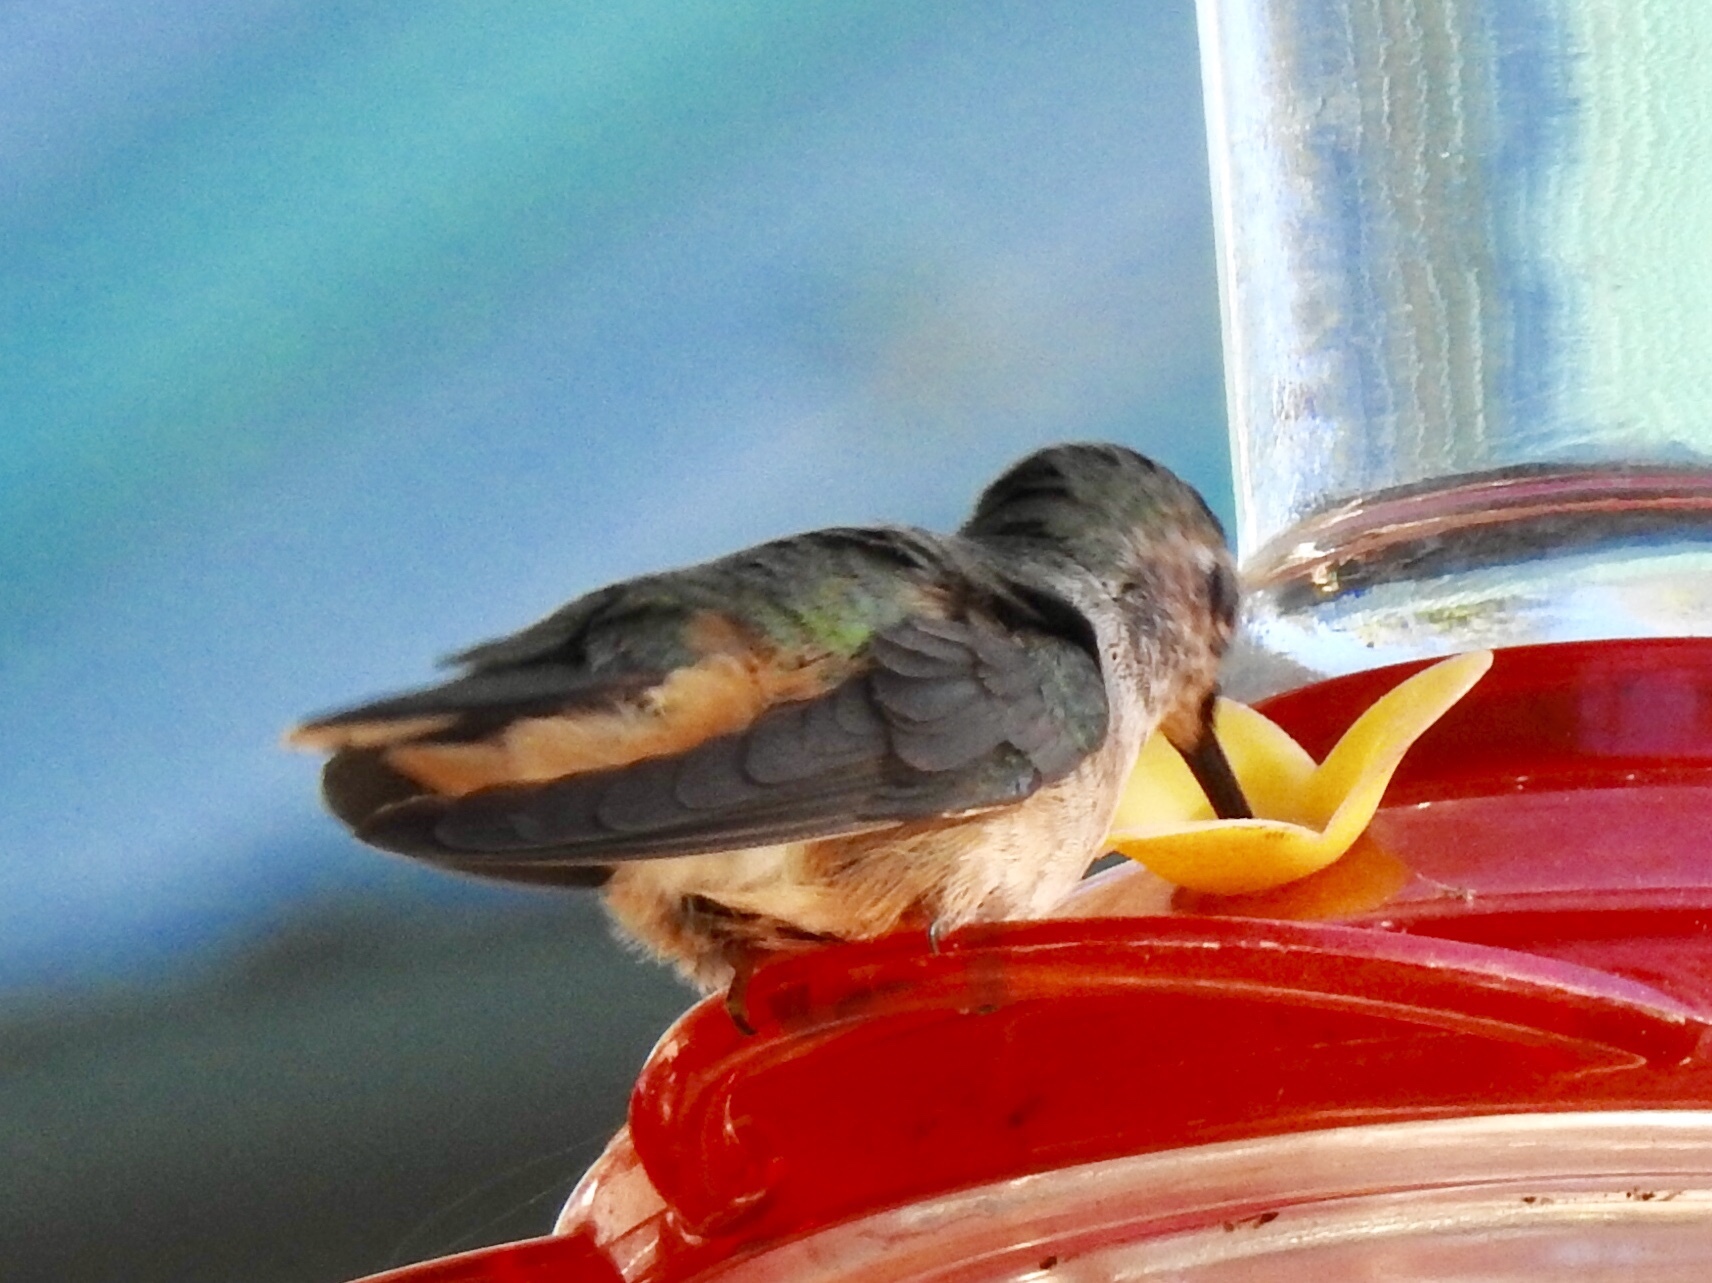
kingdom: Animalia
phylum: Chordata
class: Aves
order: Apodiformes
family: Trochilidae
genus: Selasphorus
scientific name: Selasphorus platycercus
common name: Broad-tailed hummingbird
